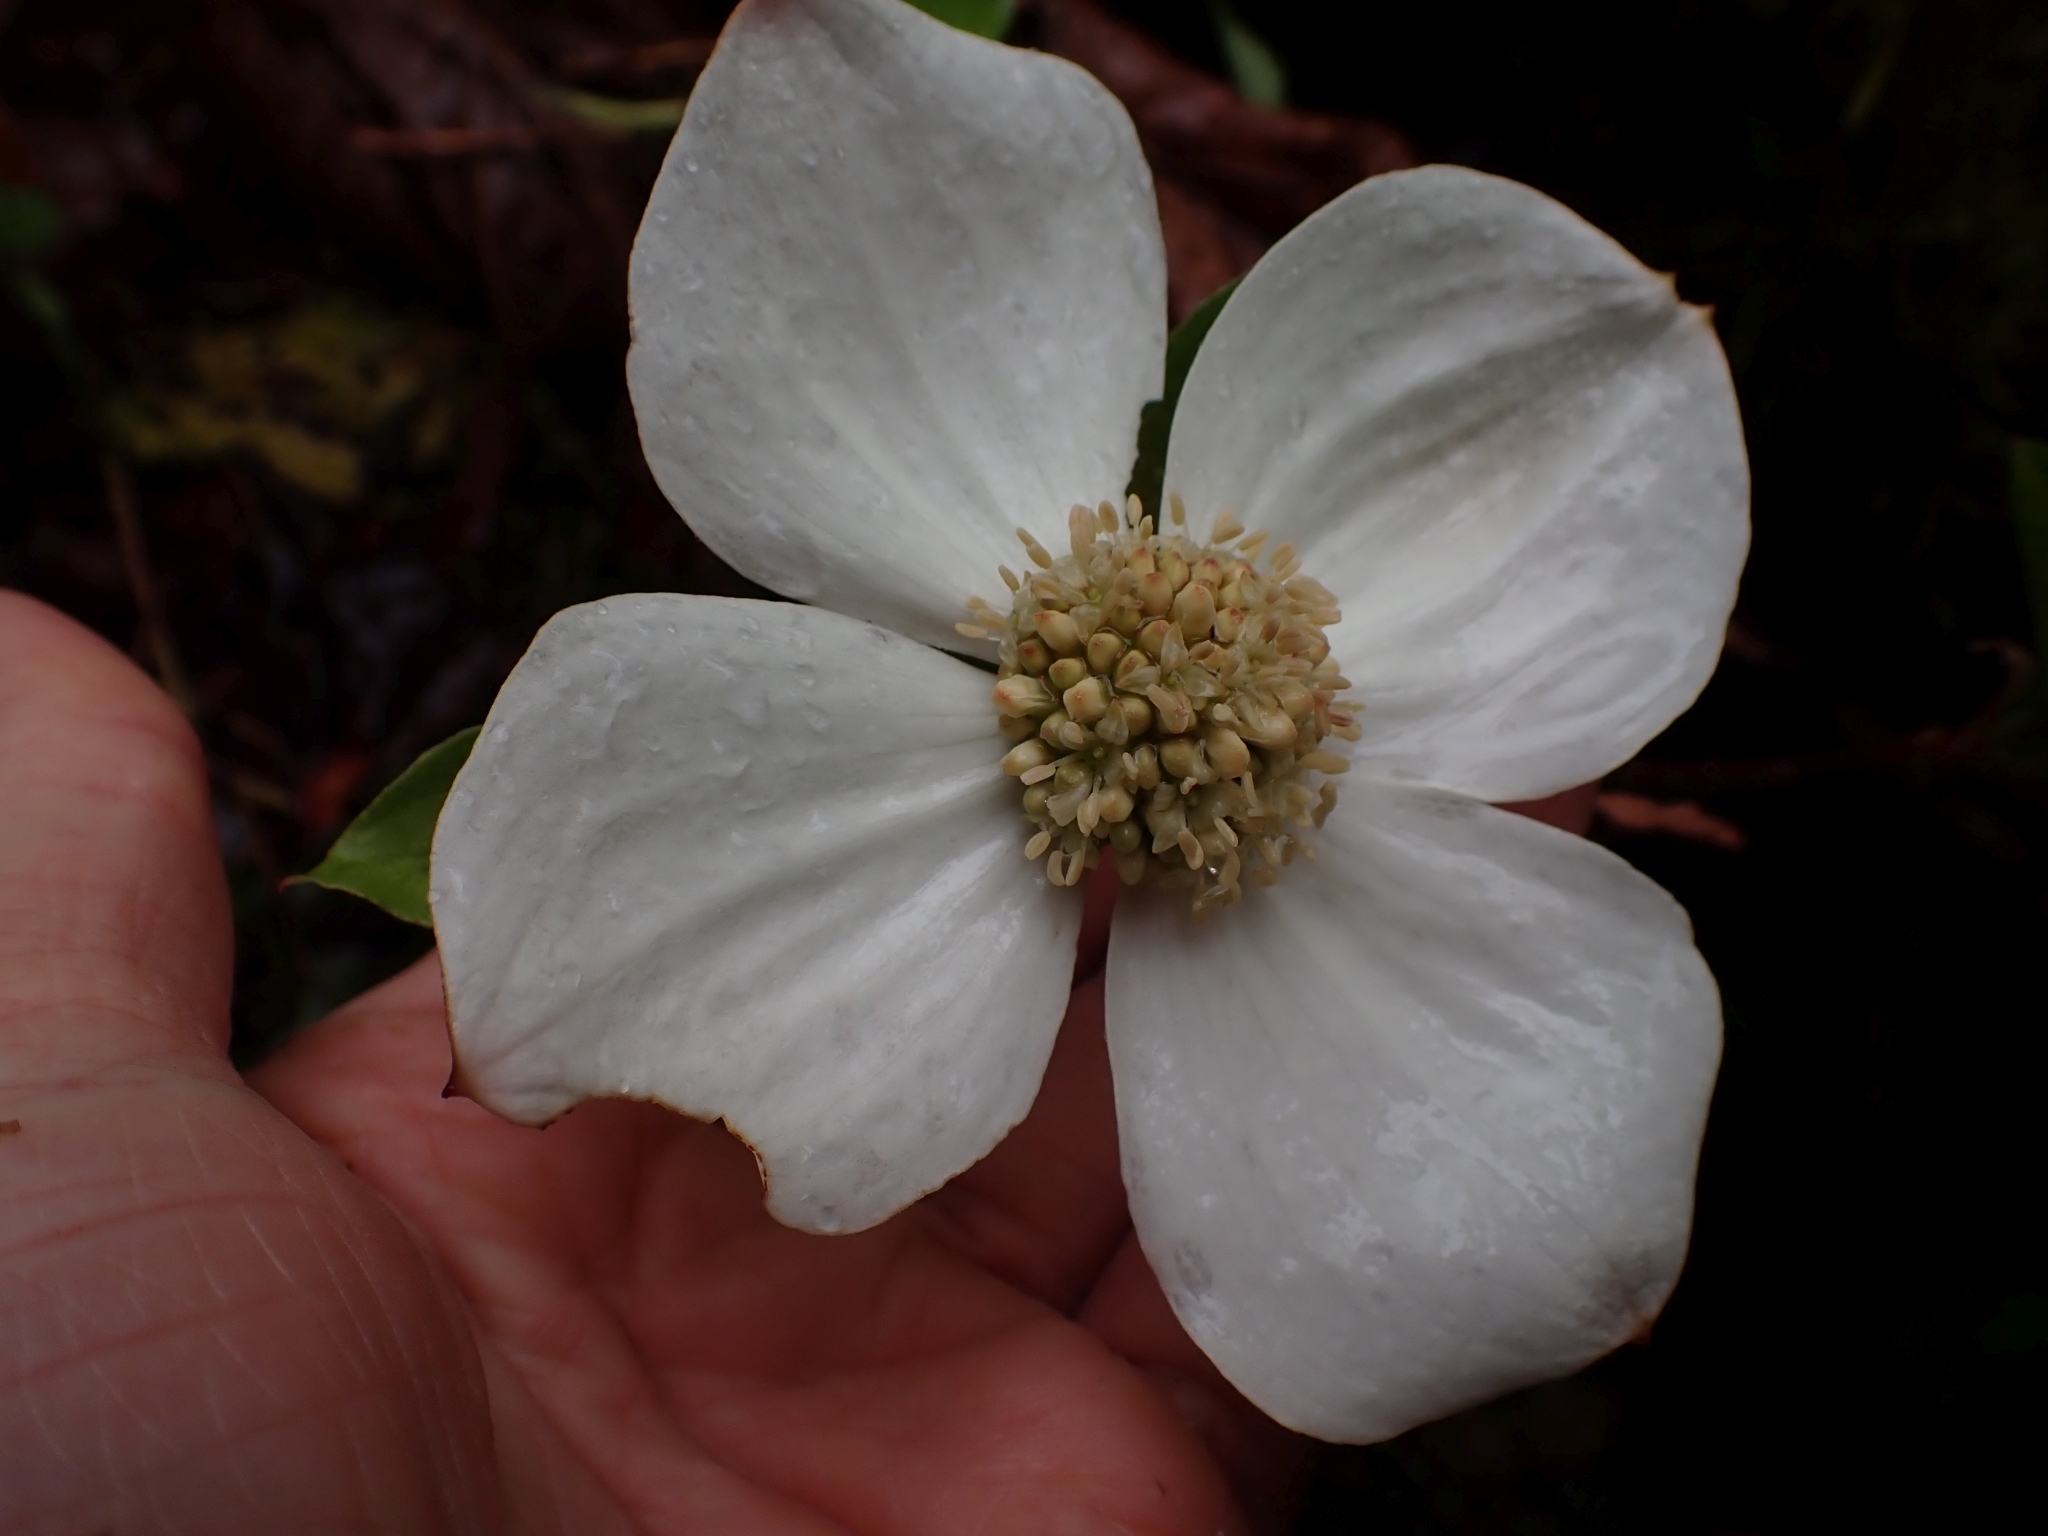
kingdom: Plantae
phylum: Tracheophyta
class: Magnoliopsida
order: Cornales
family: Cornaceae
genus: Cornus
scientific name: Cornus nuttallii
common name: Pacific dogwood
